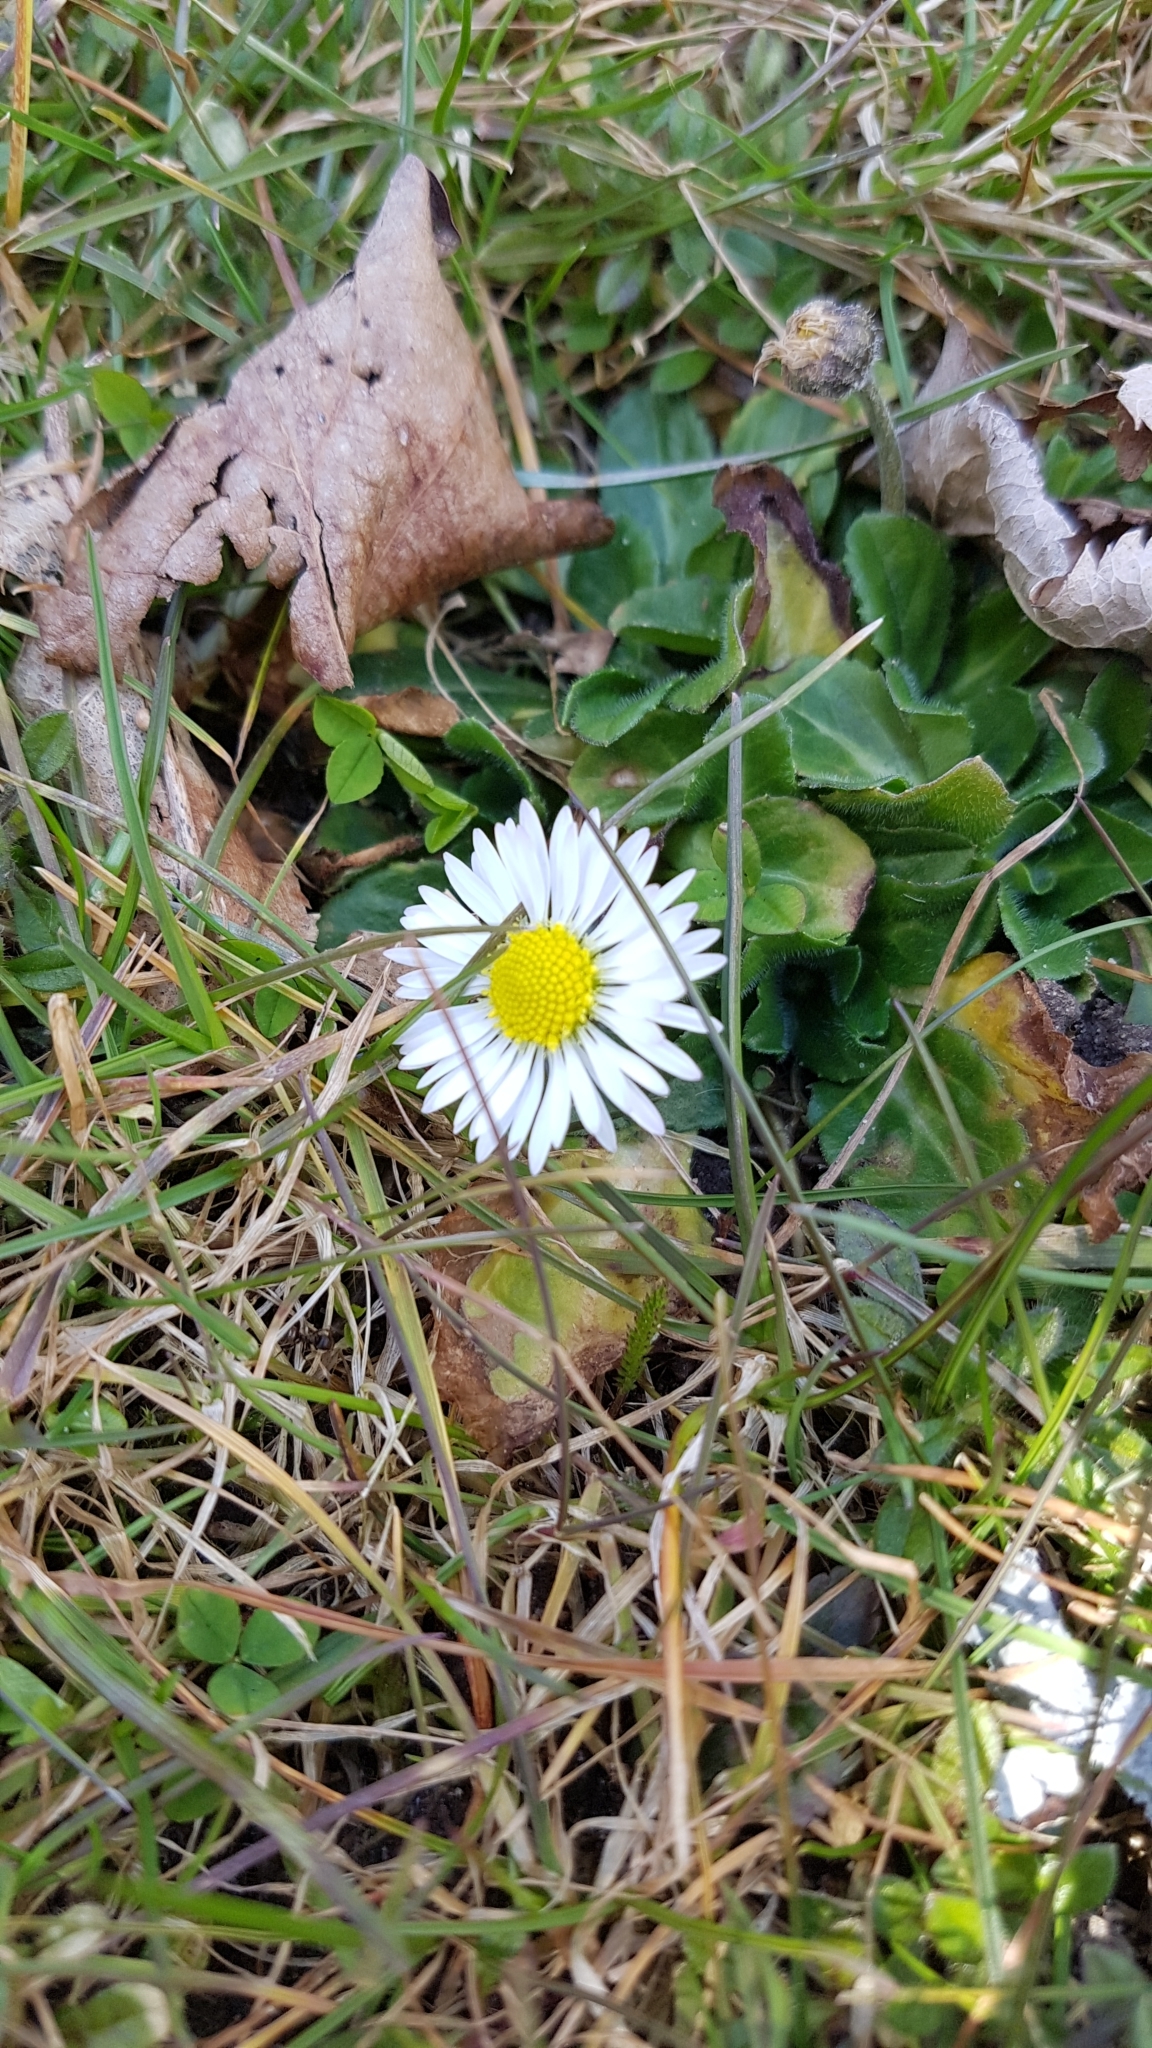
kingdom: Plantae
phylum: Tracheophyta
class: Magnoliopsida
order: Asterales
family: Asteraceae
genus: Bellis
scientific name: Bellis perennis
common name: Lawndaisy
